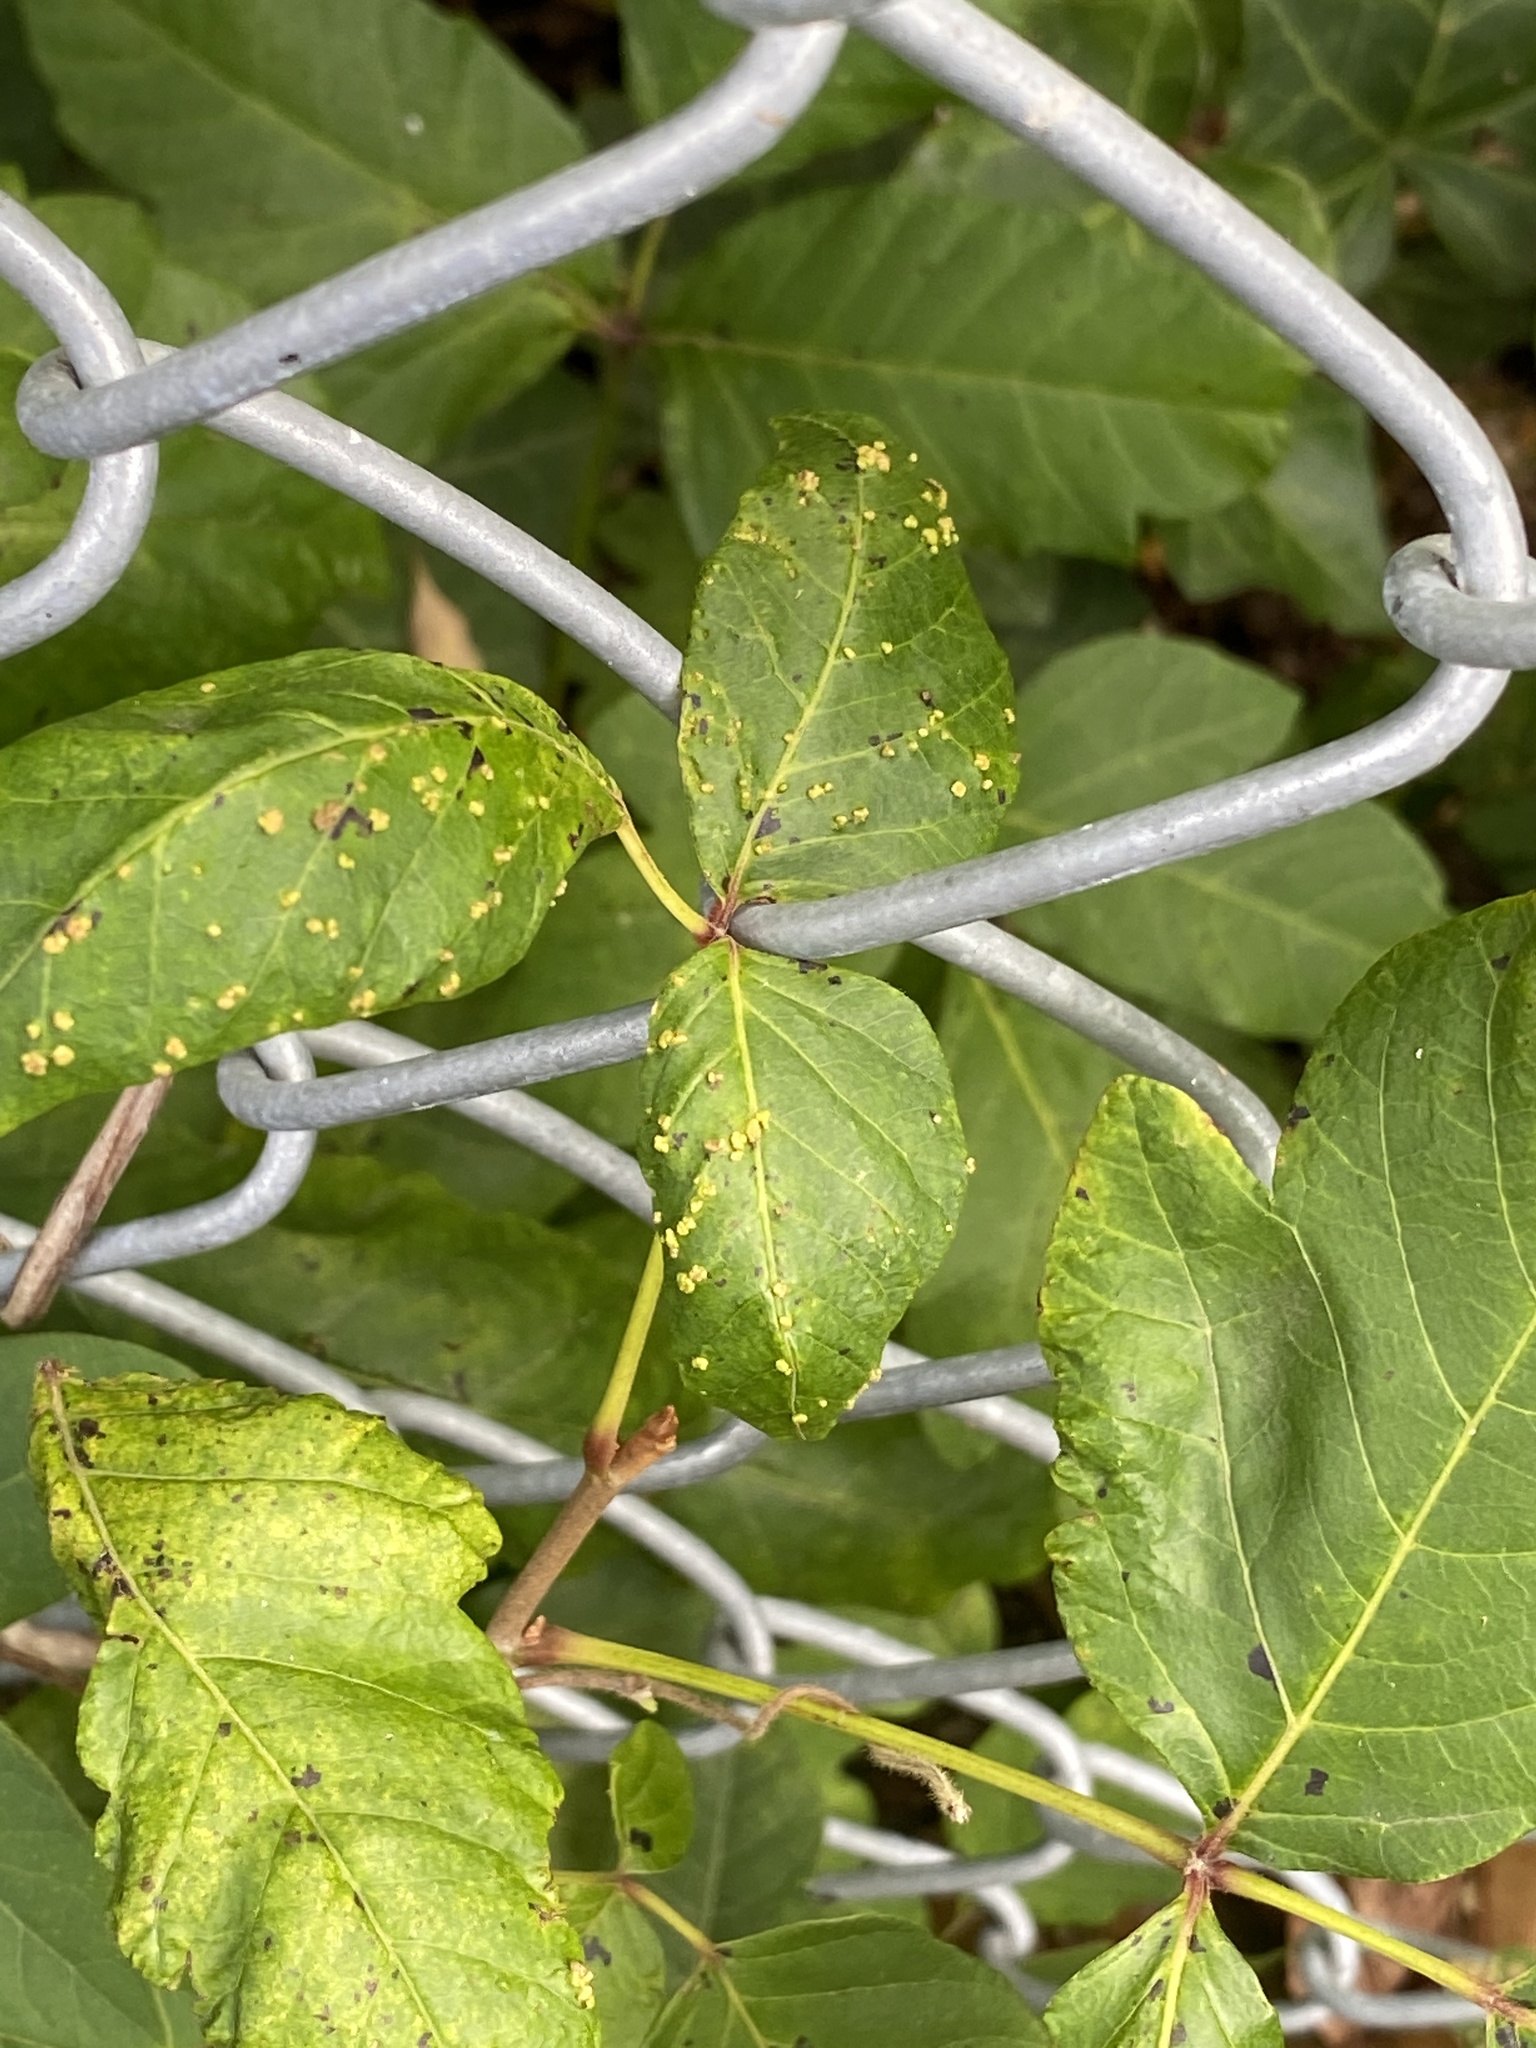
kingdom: Animalia
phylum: Arthropoda
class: Arachnida
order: Trombidiformes
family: Eriophyidae
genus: Aculops
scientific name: Aculops
